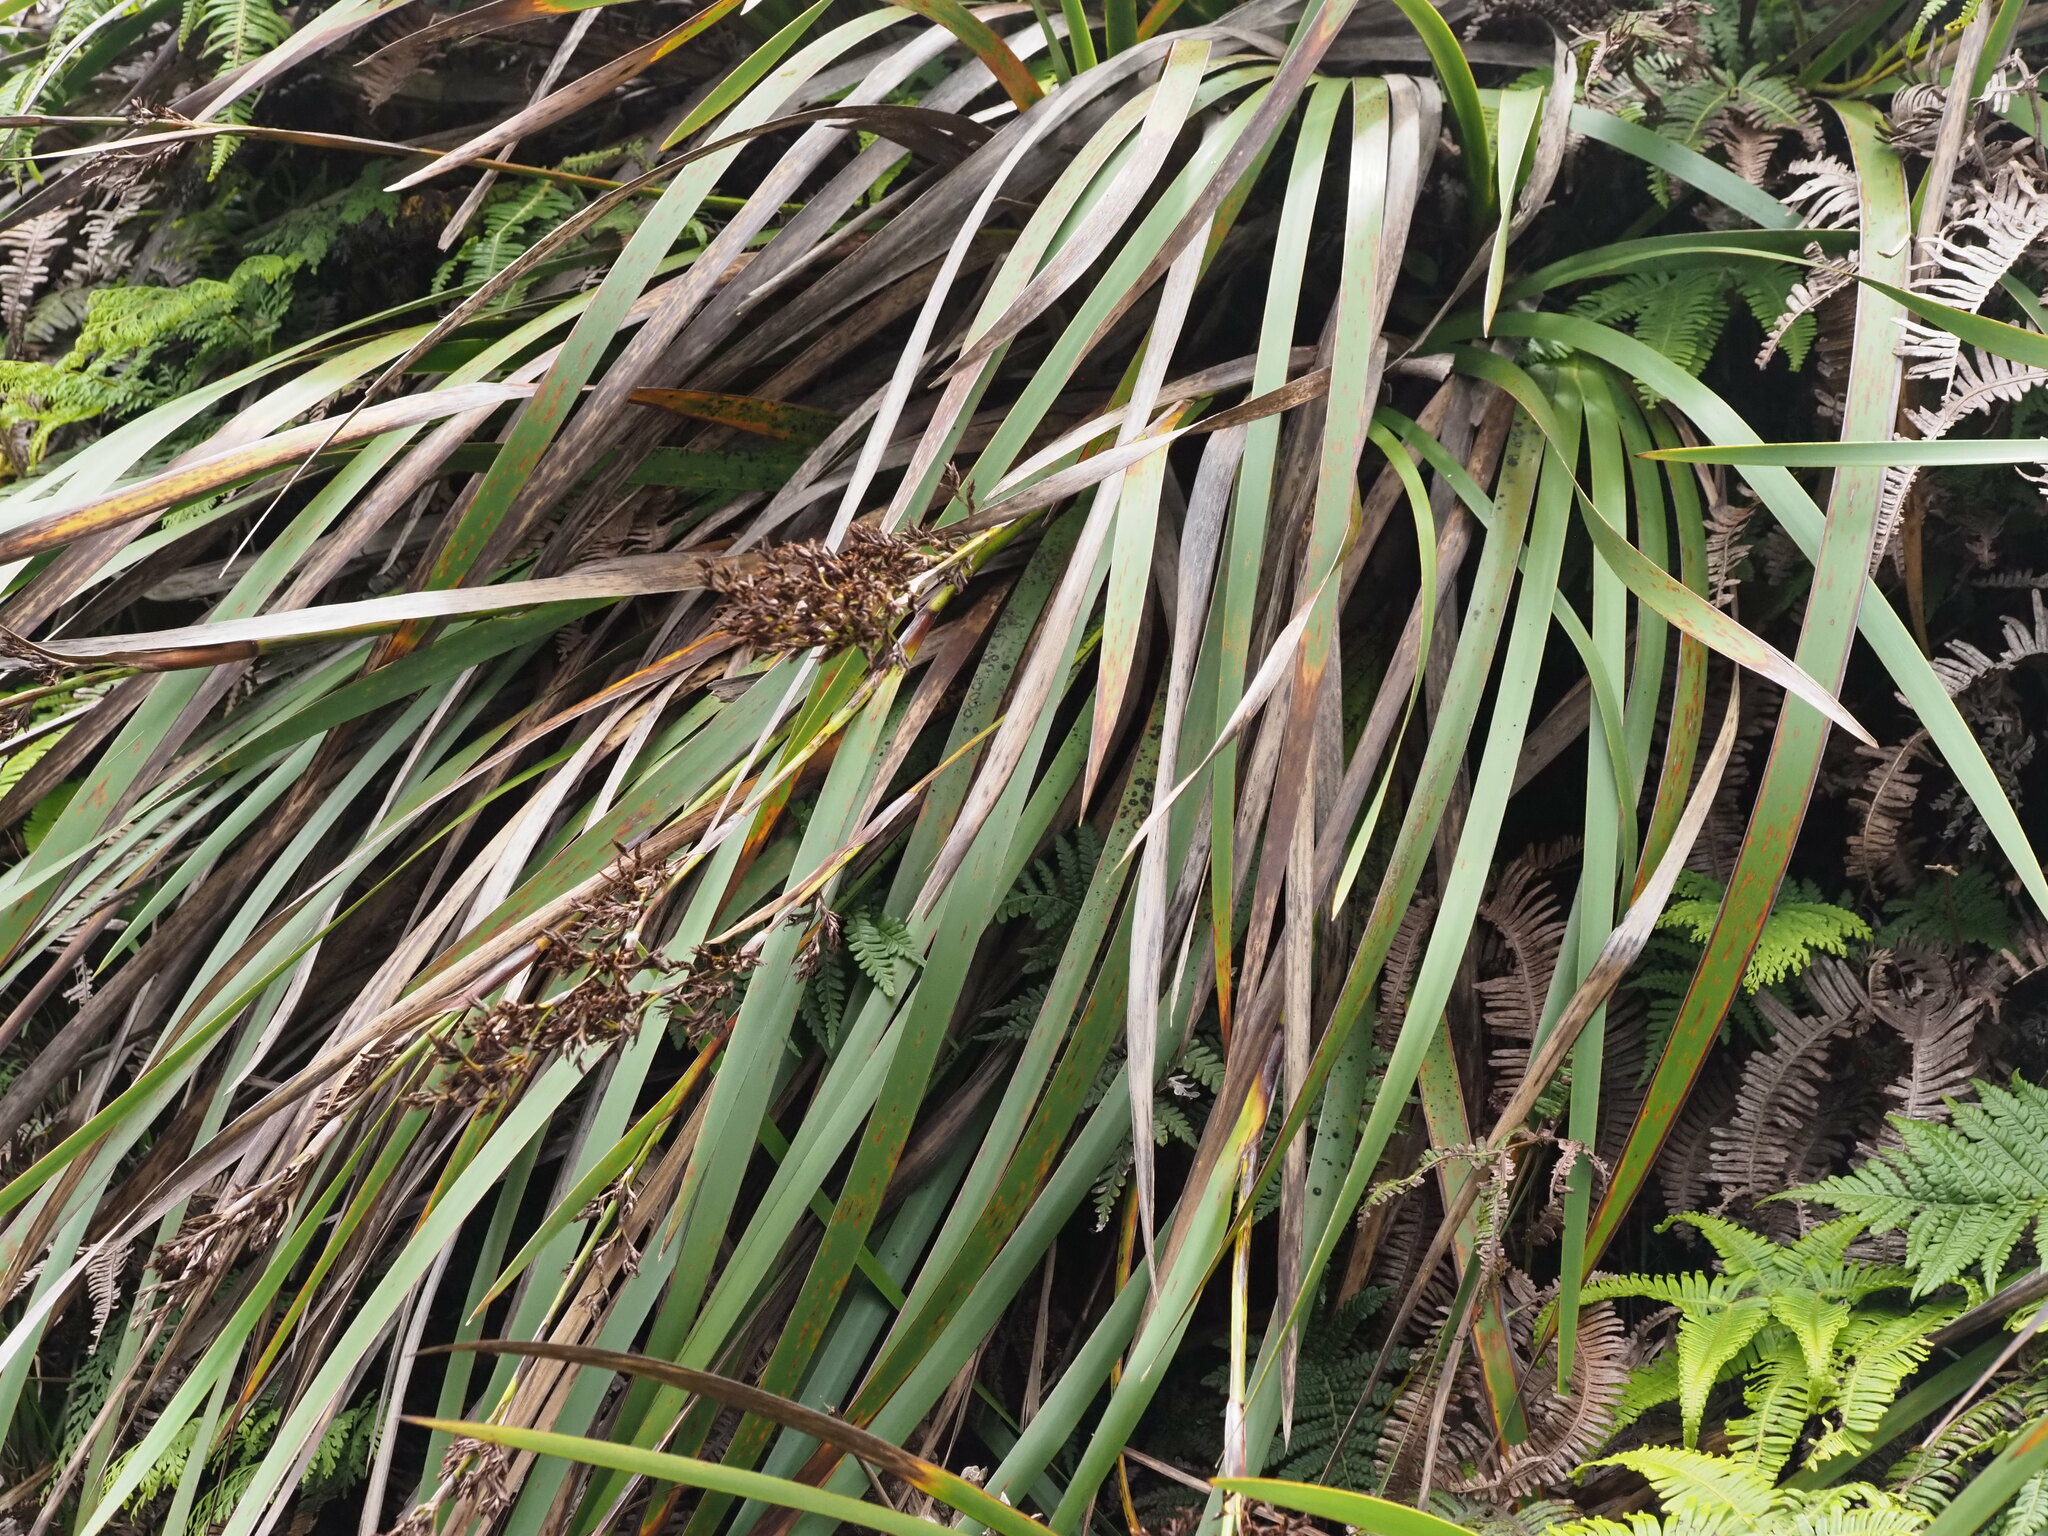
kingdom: Plantae
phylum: Tracheophyta
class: Liliopsida
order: Poales
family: Cyperaceae
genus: Machaerina
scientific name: Machaerina angustifolia
